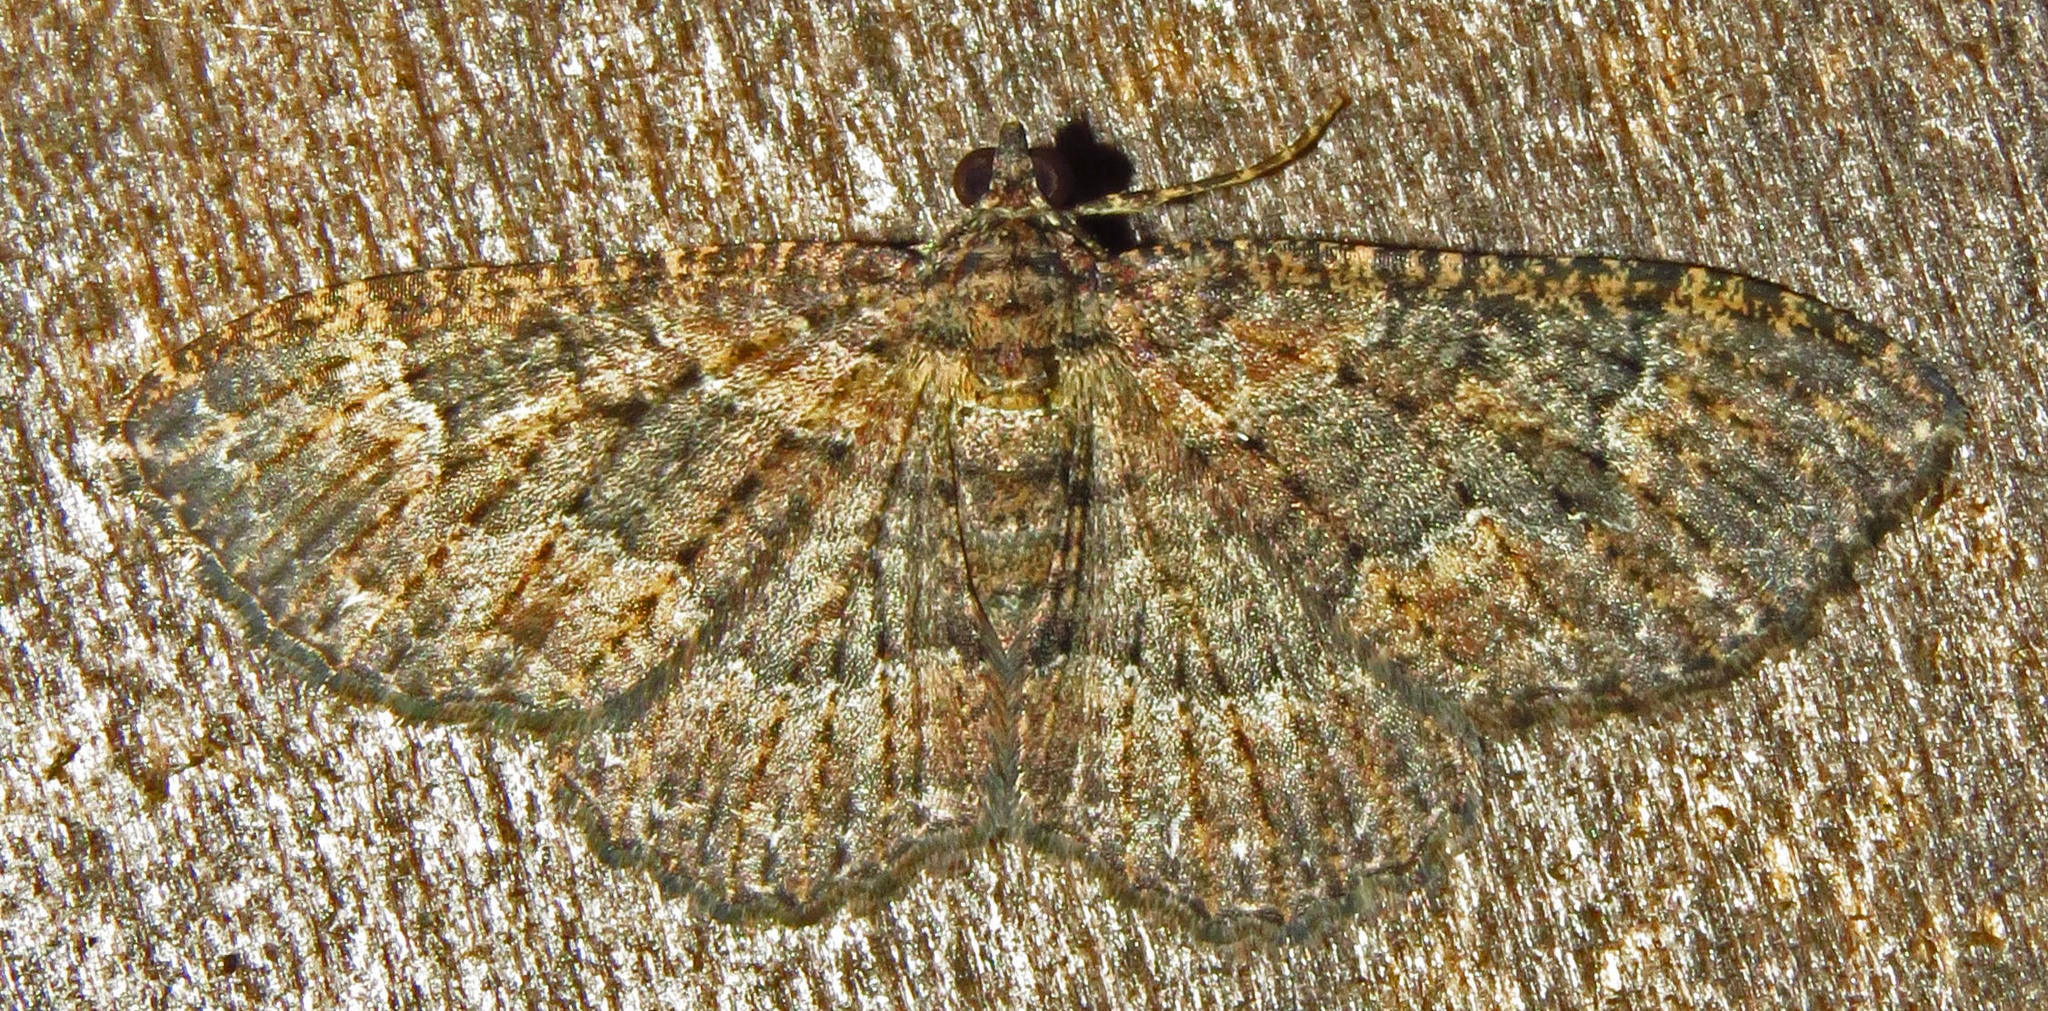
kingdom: Animalia
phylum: Arthropoda
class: Insecta
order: Lepidoptera
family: Geometridae
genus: Disclisioprocta
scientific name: Disclisioprocta stellata
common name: Somber carpet
